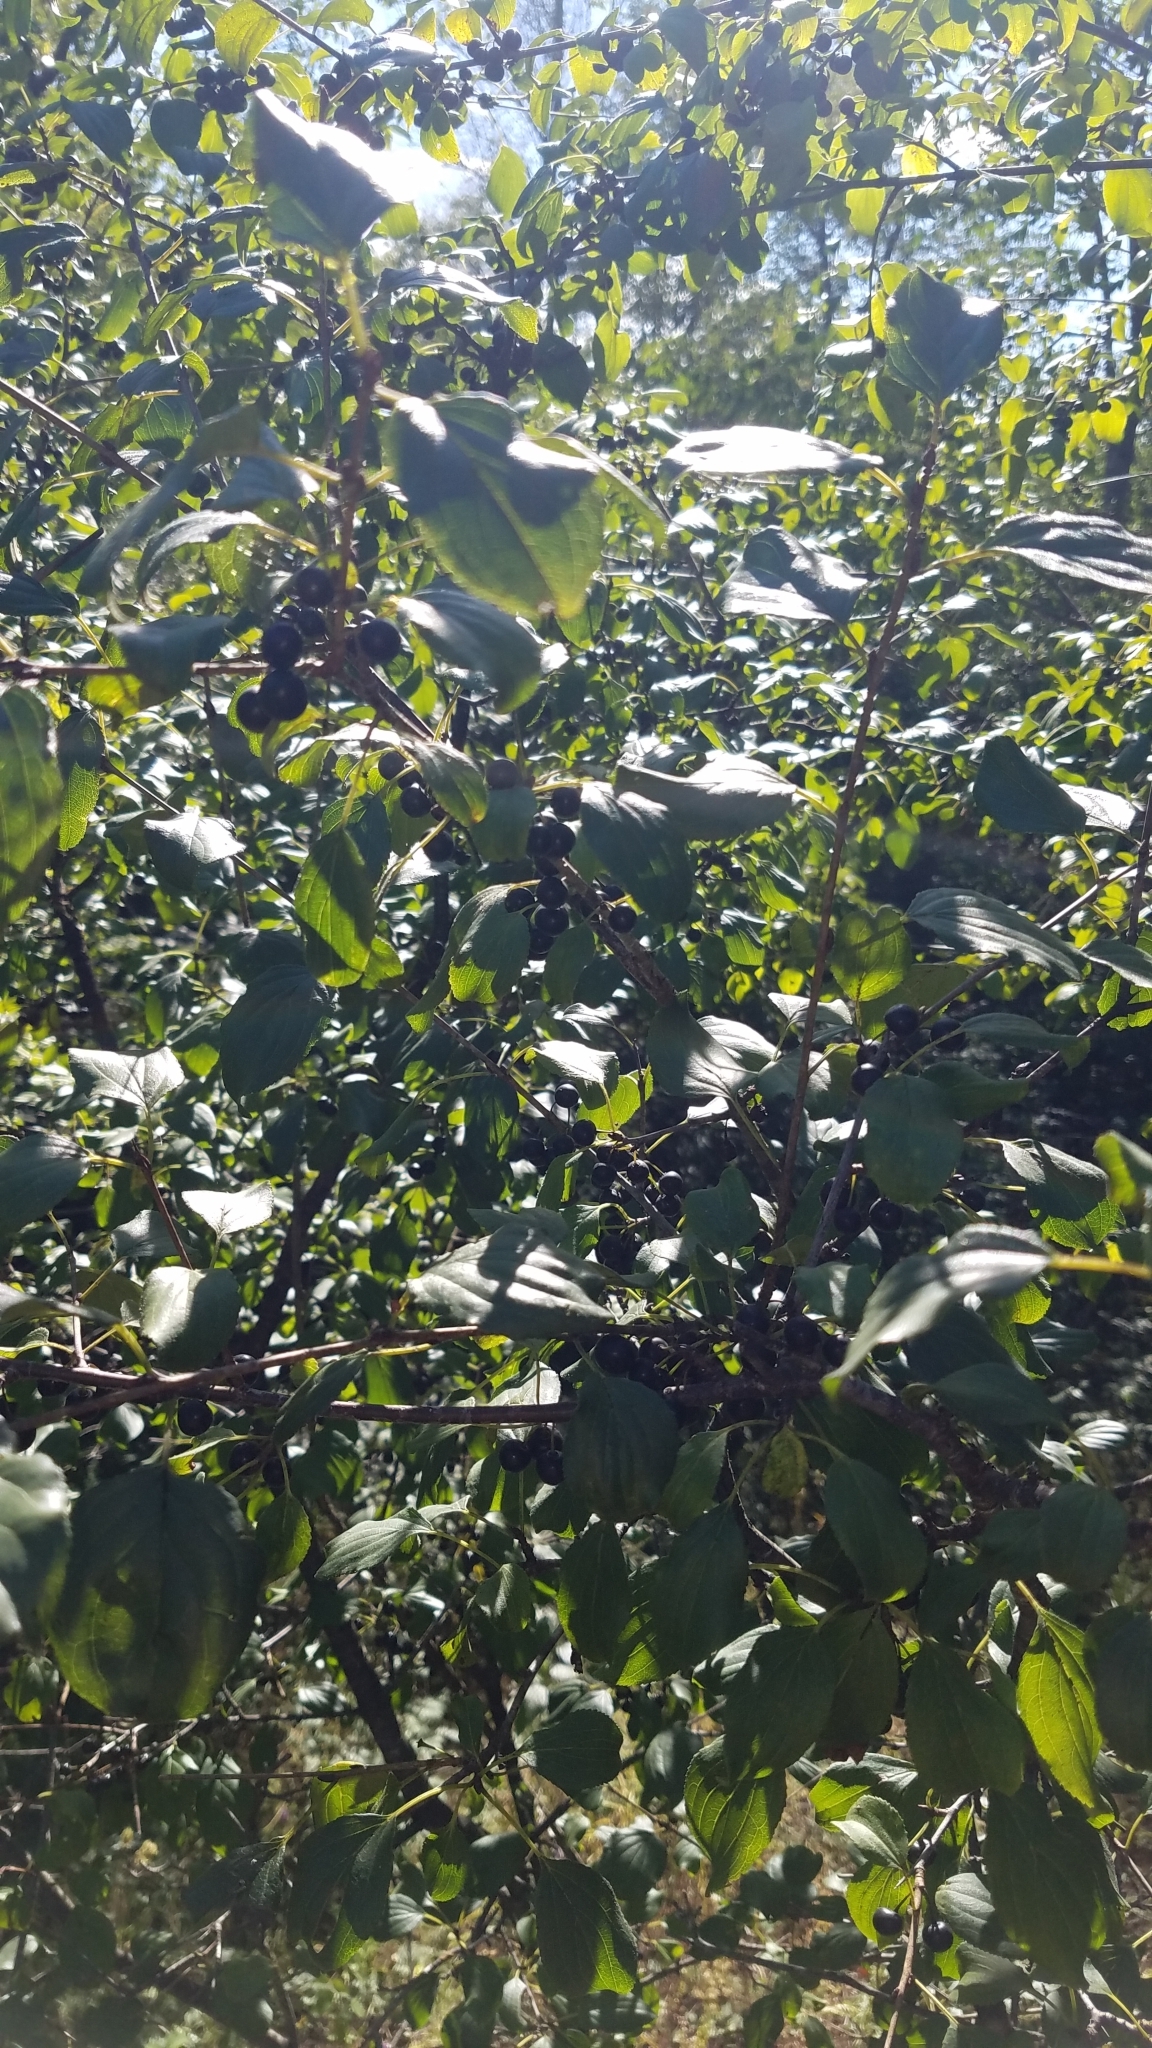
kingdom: Plantae
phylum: Tracheophyta
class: Magnoliopsida
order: Rosales
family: Rhamnaceae
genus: Rhamnus
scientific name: Rhamnus cathartica
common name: Common buckthorn
